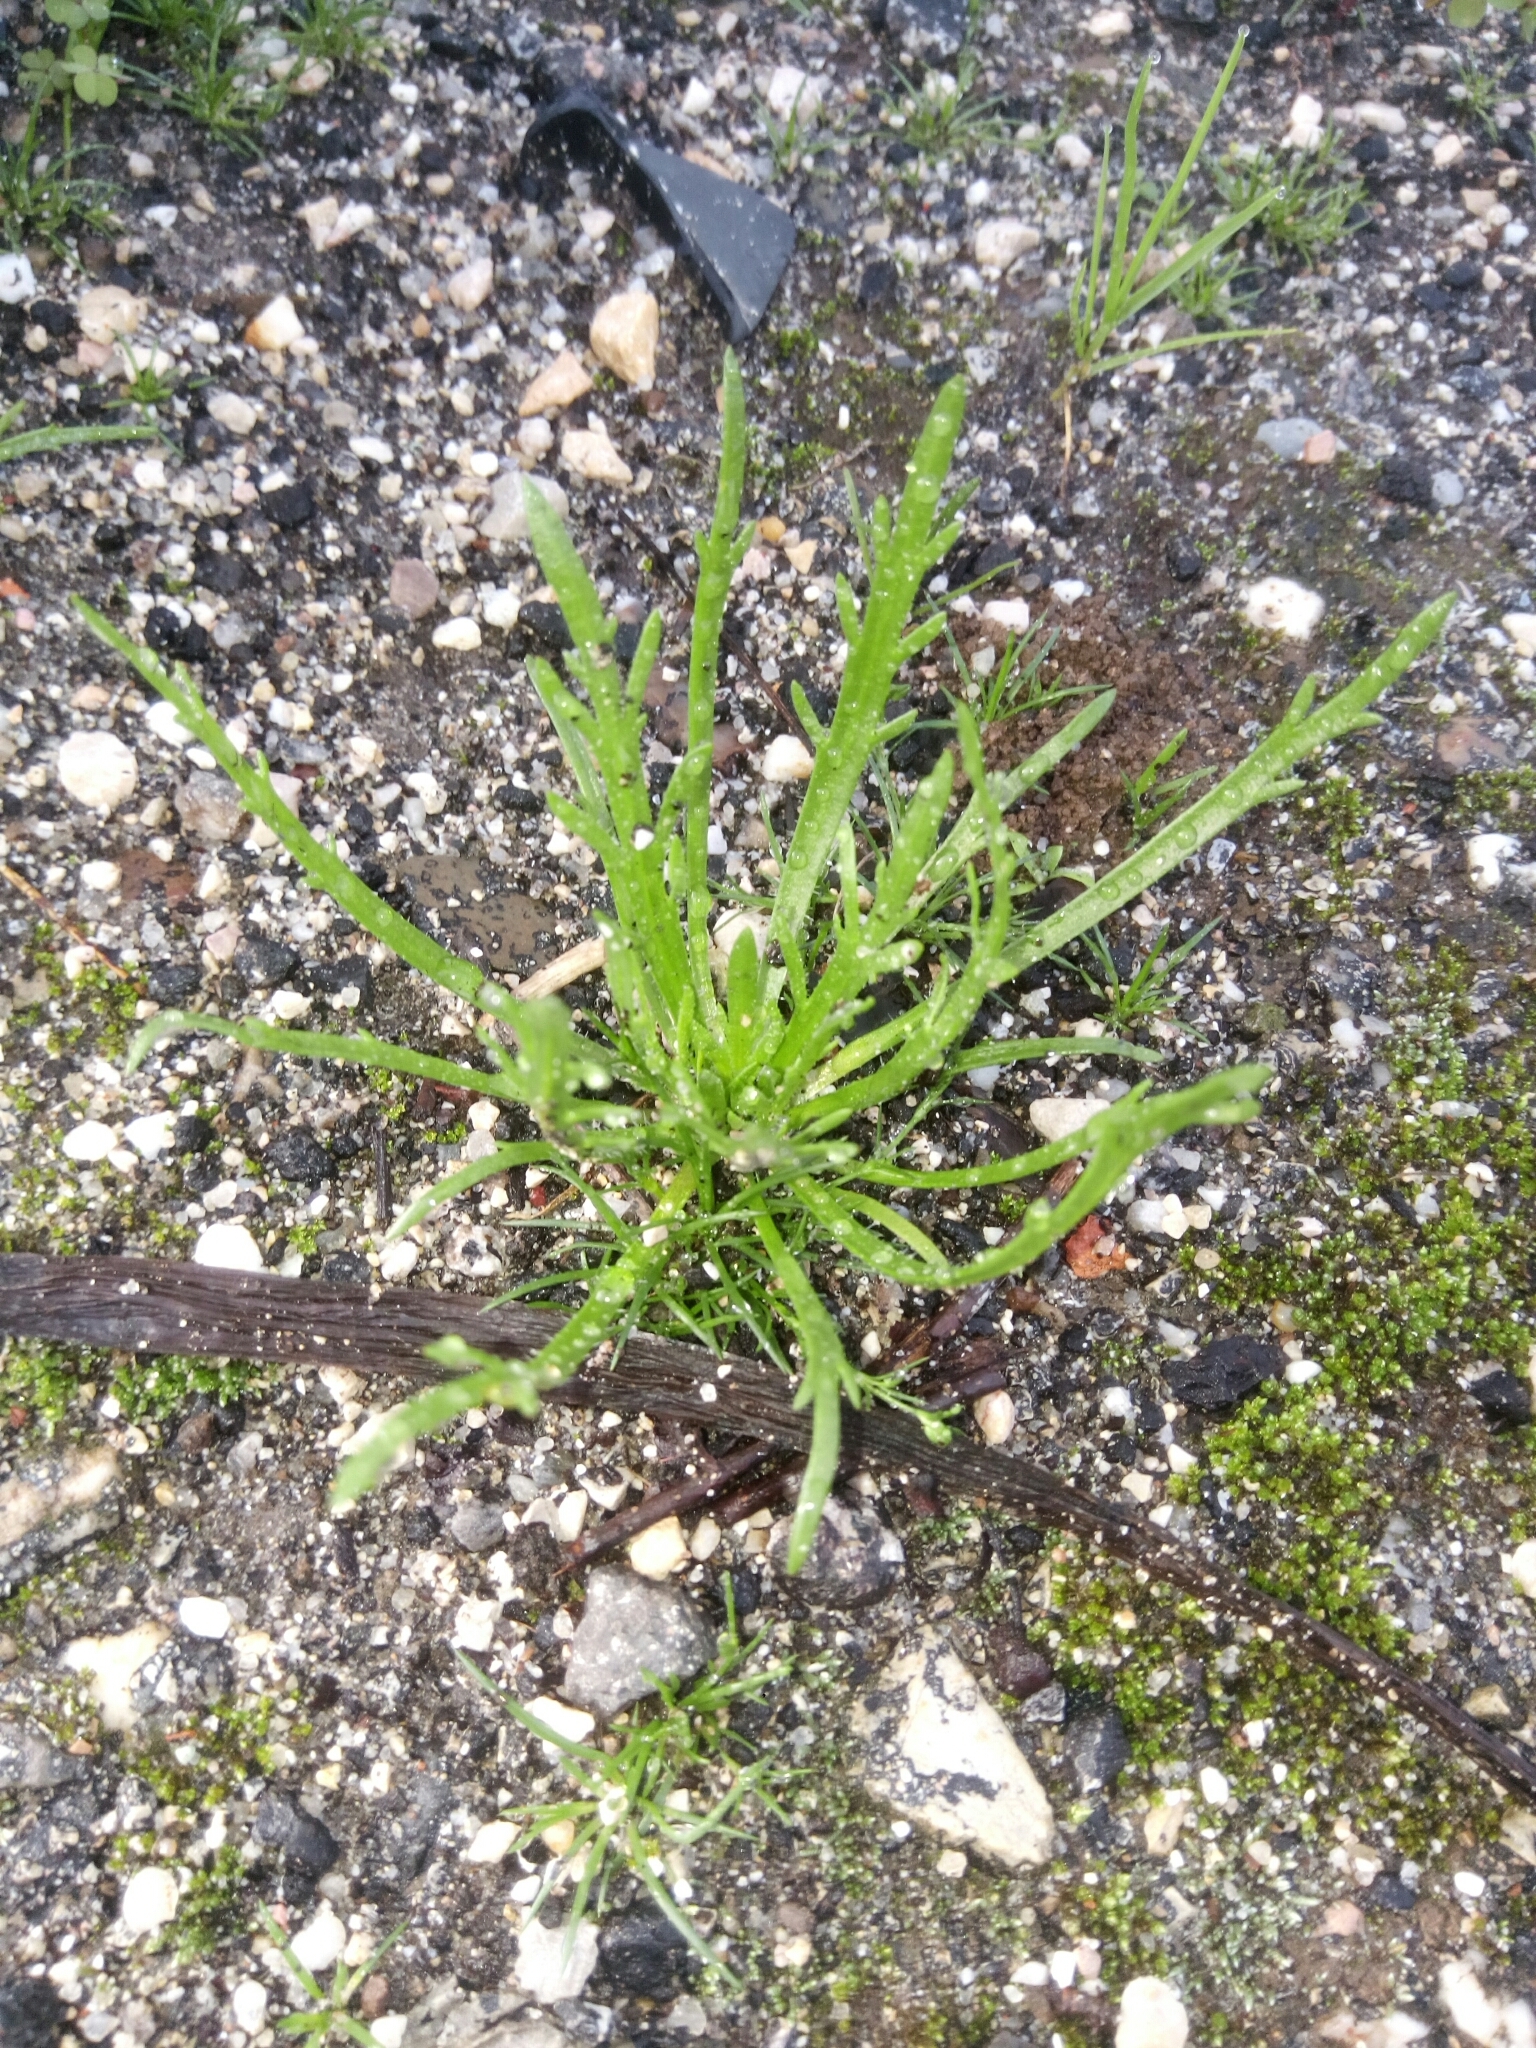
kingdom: Plantae
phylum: Tracheophyta
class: Magnoliopsida
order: Lamiales
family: Plantaginaceae
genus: Plantago
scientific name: Plantago coronopus
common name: Buck's-horn plantain
